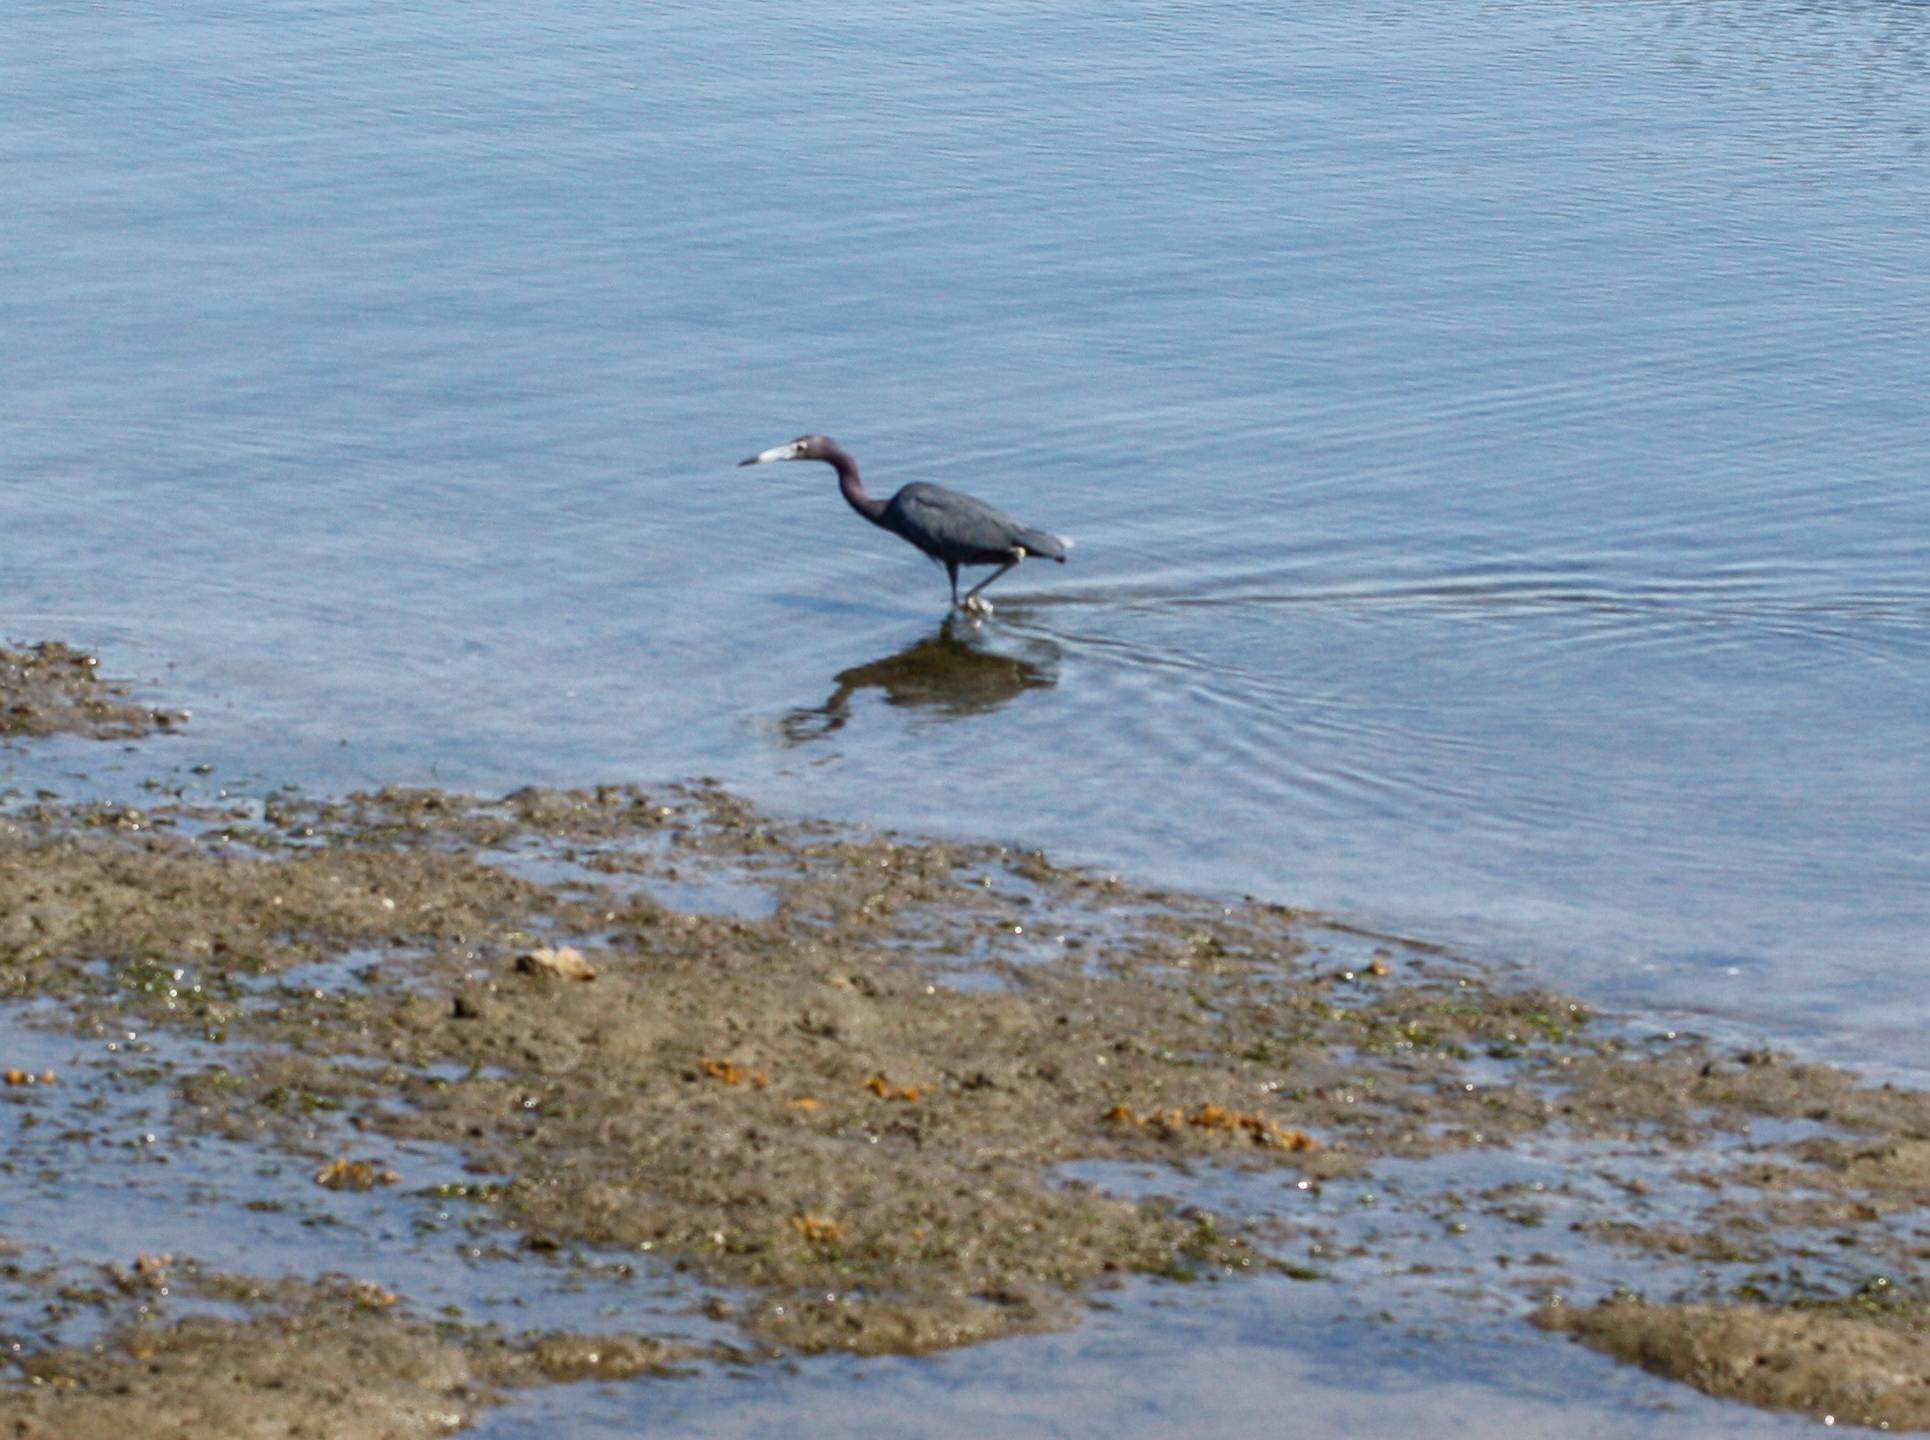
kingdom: Animalia
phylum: Chordata
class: Aves
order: Pelecaniformes
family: Ardeidae
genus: Egretta
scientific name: Egretta caerulea
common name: Little blue heron
